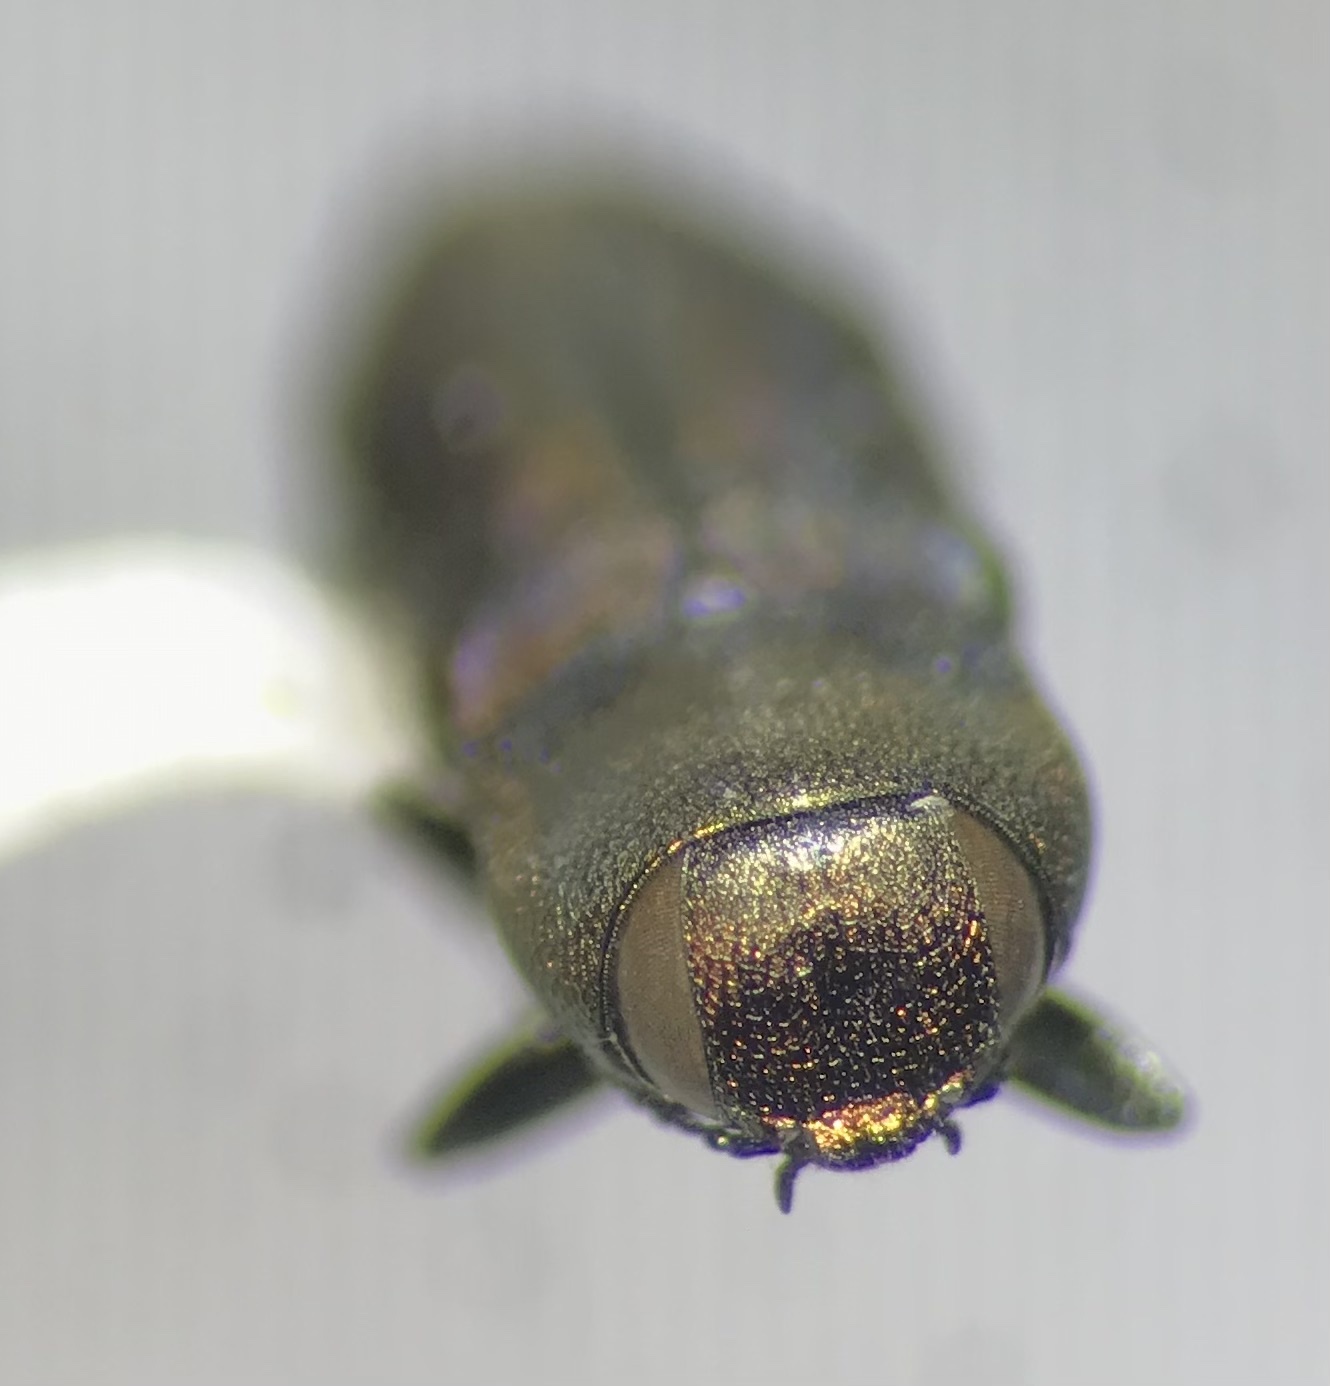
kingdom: Animalia
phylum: Arthropoda
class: Insecta
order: Coleoptera
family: Buprestidae
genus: Anthaxia
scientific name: Anthaxia caseyi
